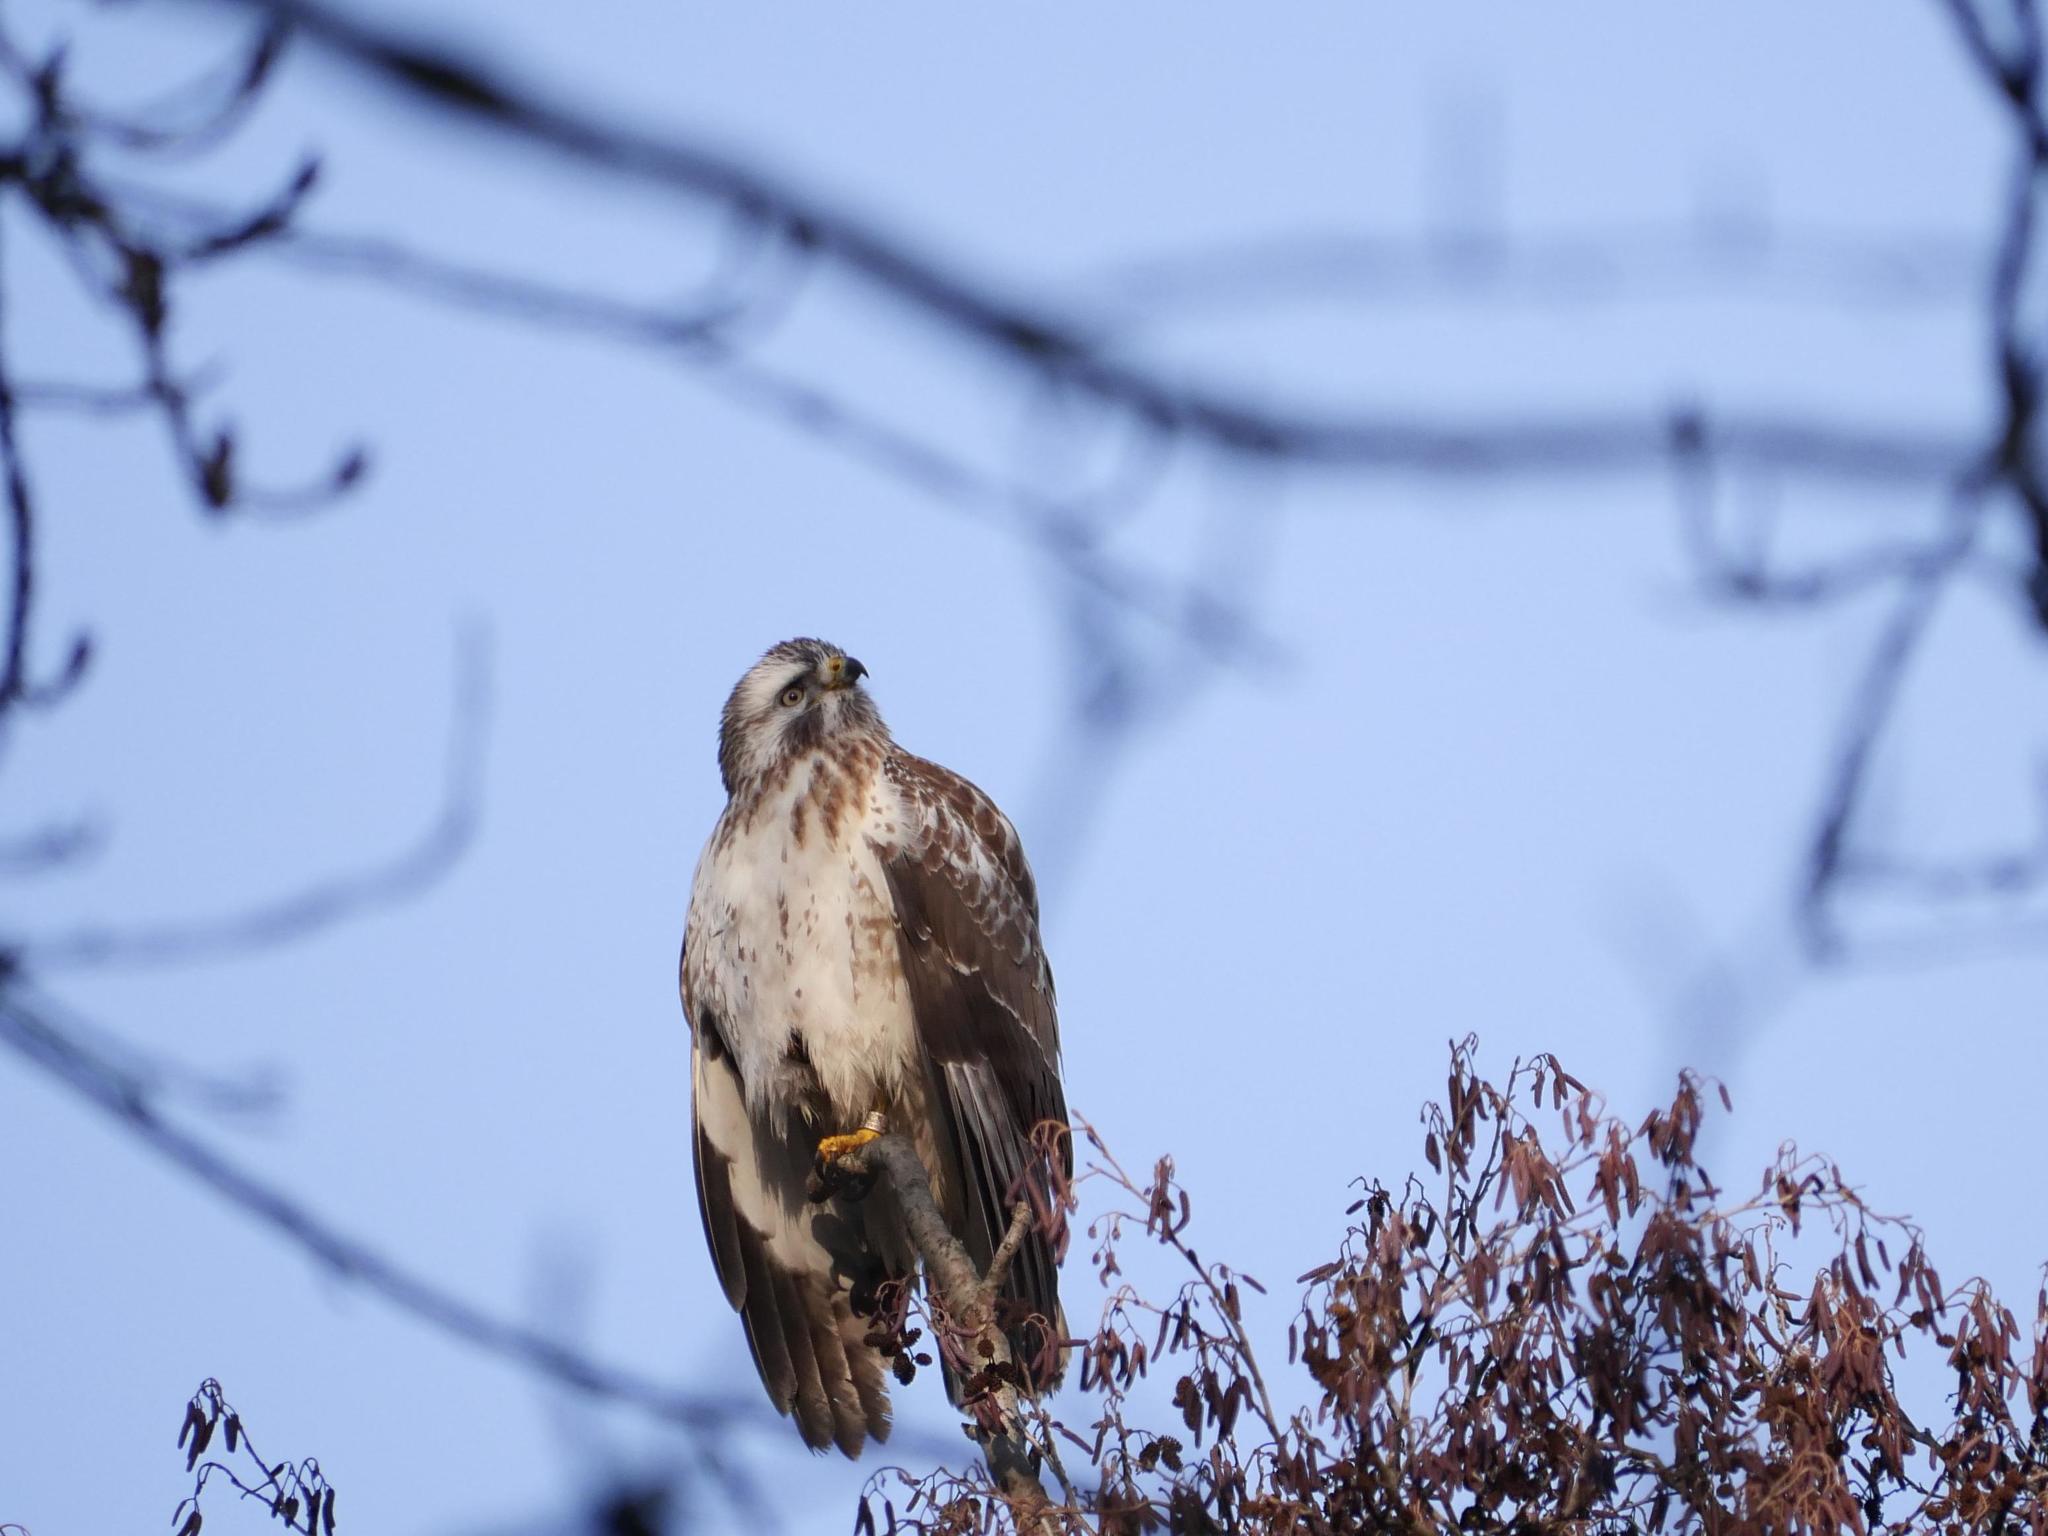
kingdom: Animalia
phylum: Chordata
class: Aves
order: Accipitriformes
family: Accipitridae
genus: Buteo
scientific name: Buteo buteo
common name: Common buzzard
